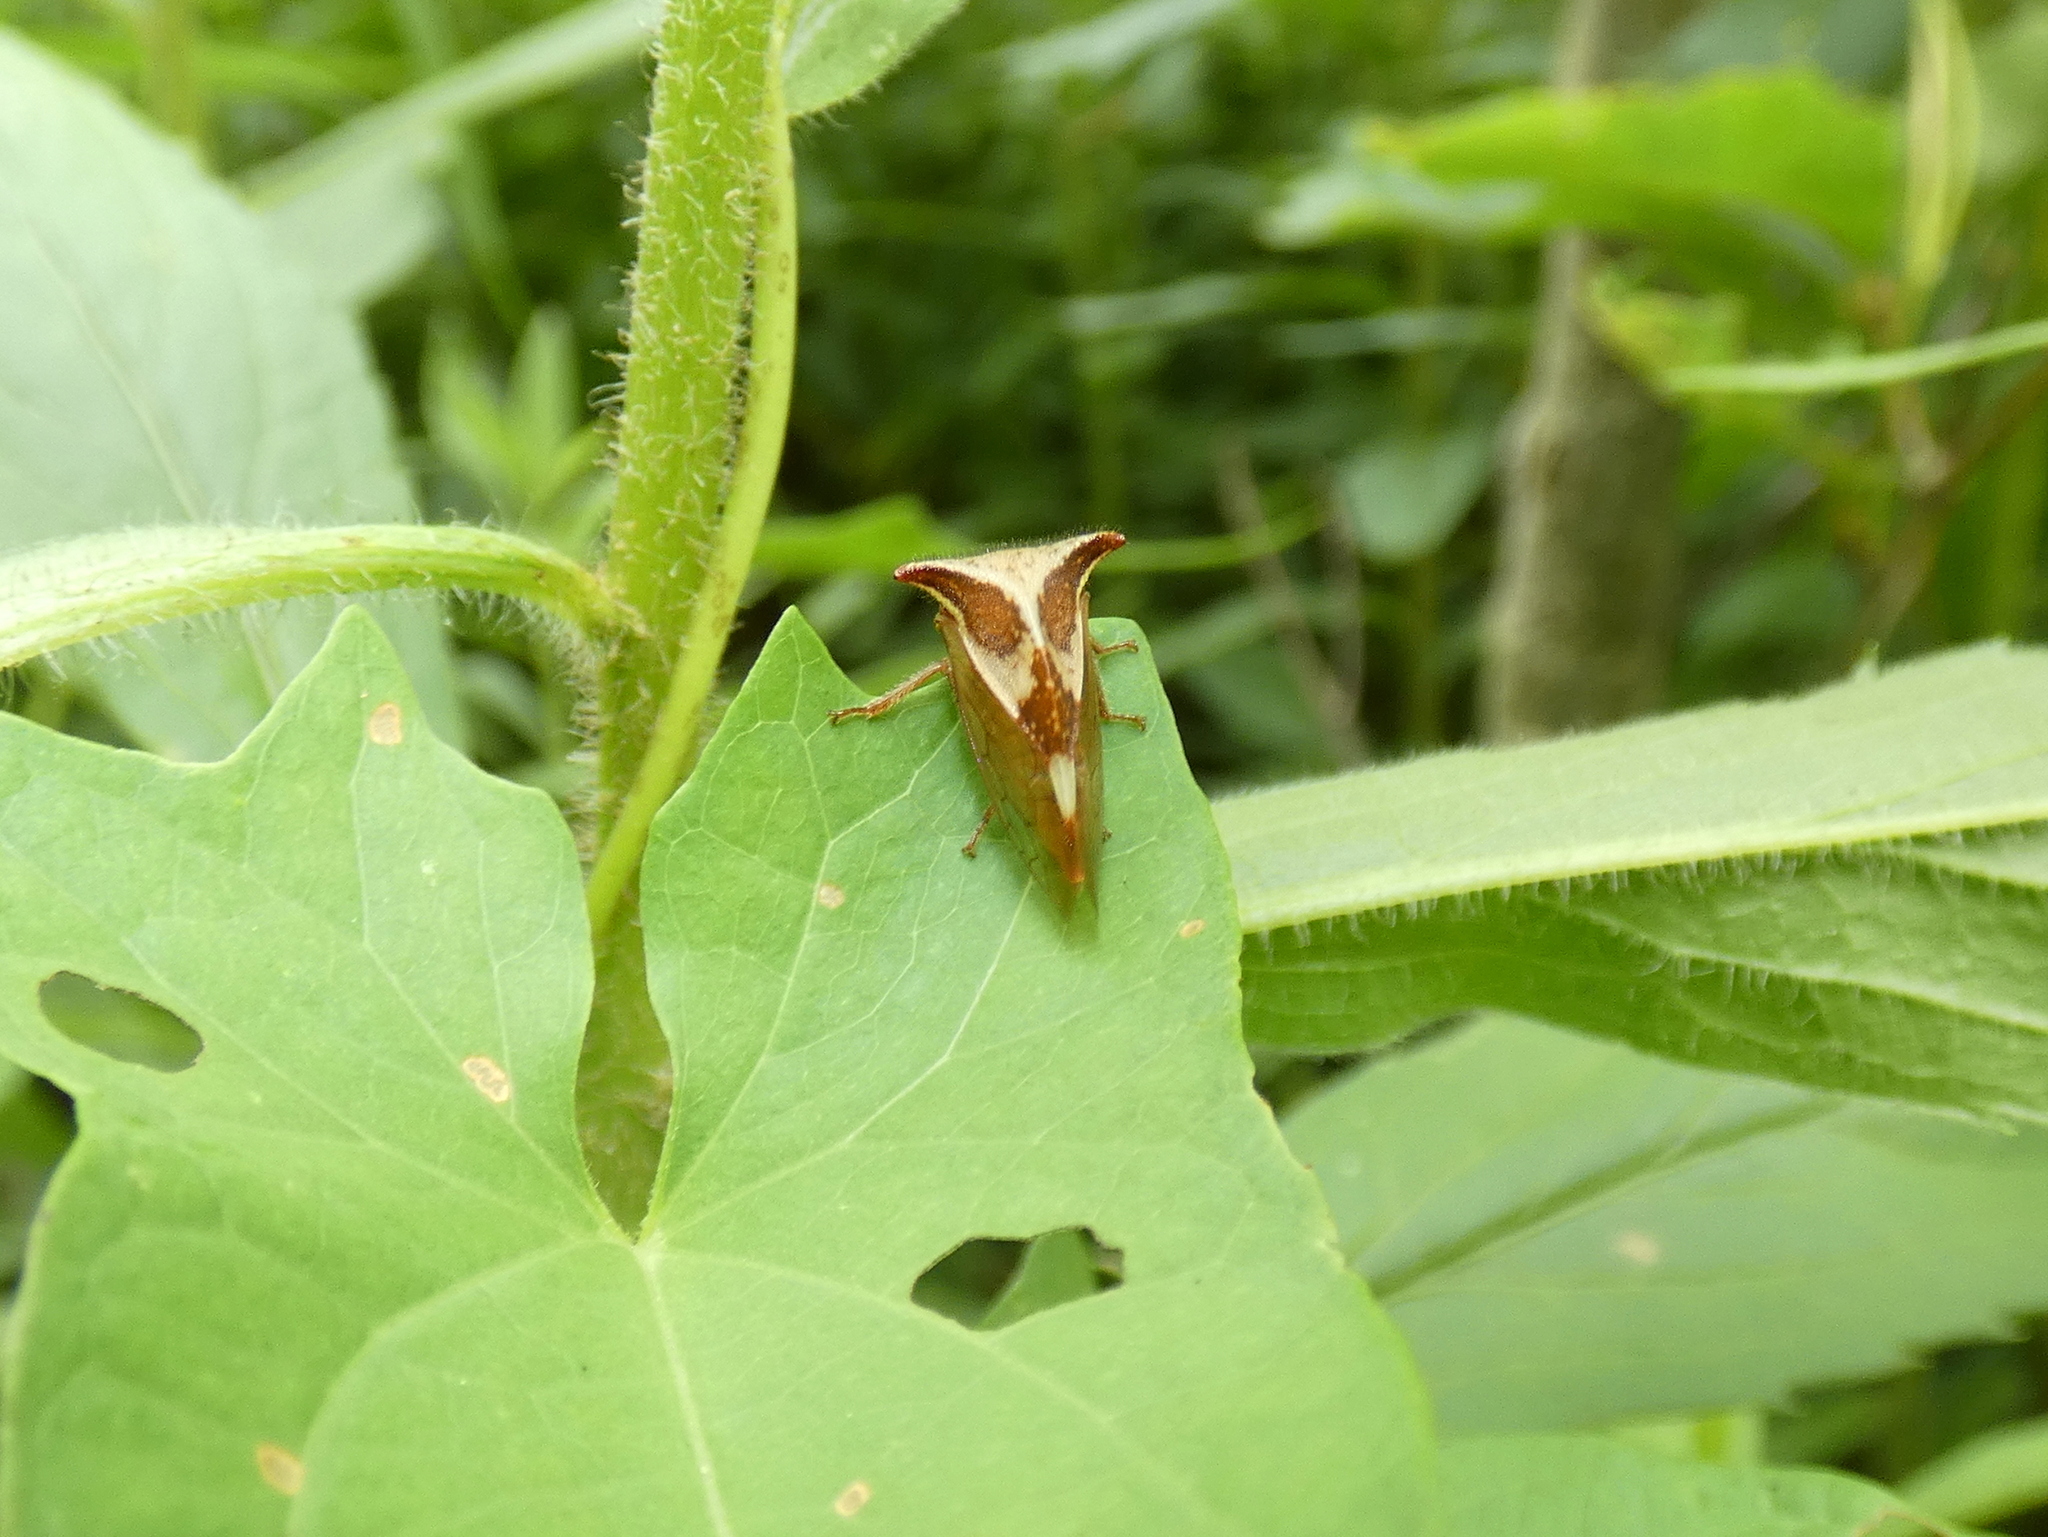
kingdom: Animalia
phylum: Arthropoda
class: Insecta
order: Hemiptera
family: Membracidae
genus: Stictocephala
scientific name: Stictocephala diceros
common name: Two-horned treehopper
